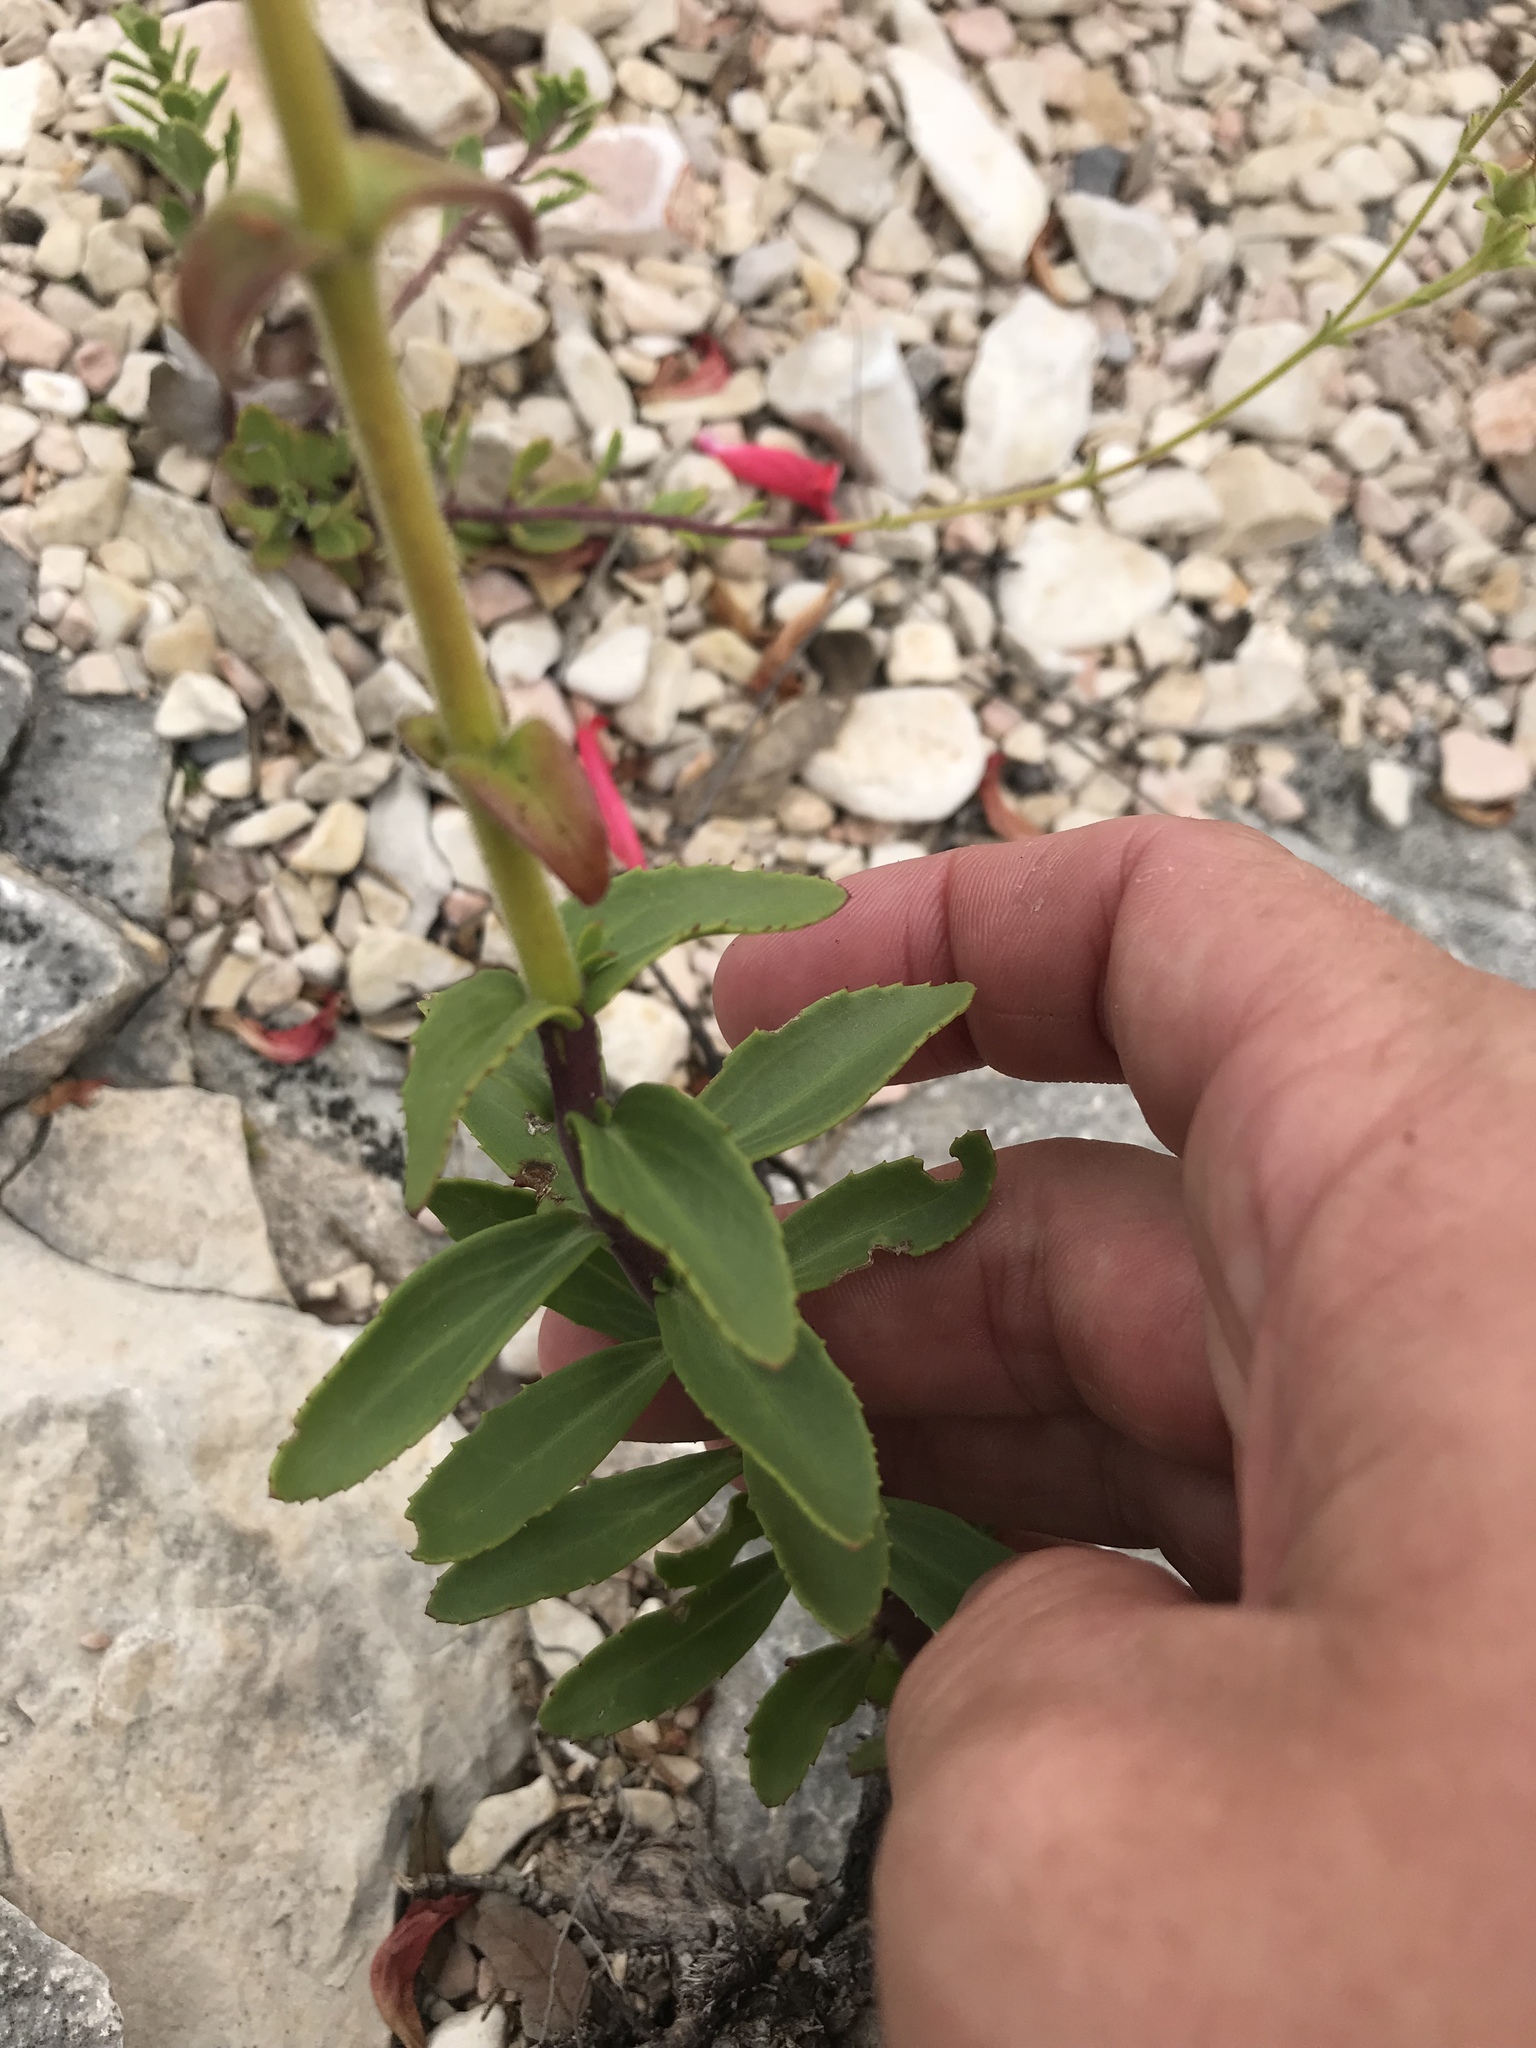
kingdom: Plantae
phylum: Tracheophyta
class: Magnoliopsida
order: Lamiales
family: Plantaginaceae
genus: Penstemon
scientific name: Penstemon baccharifolius
